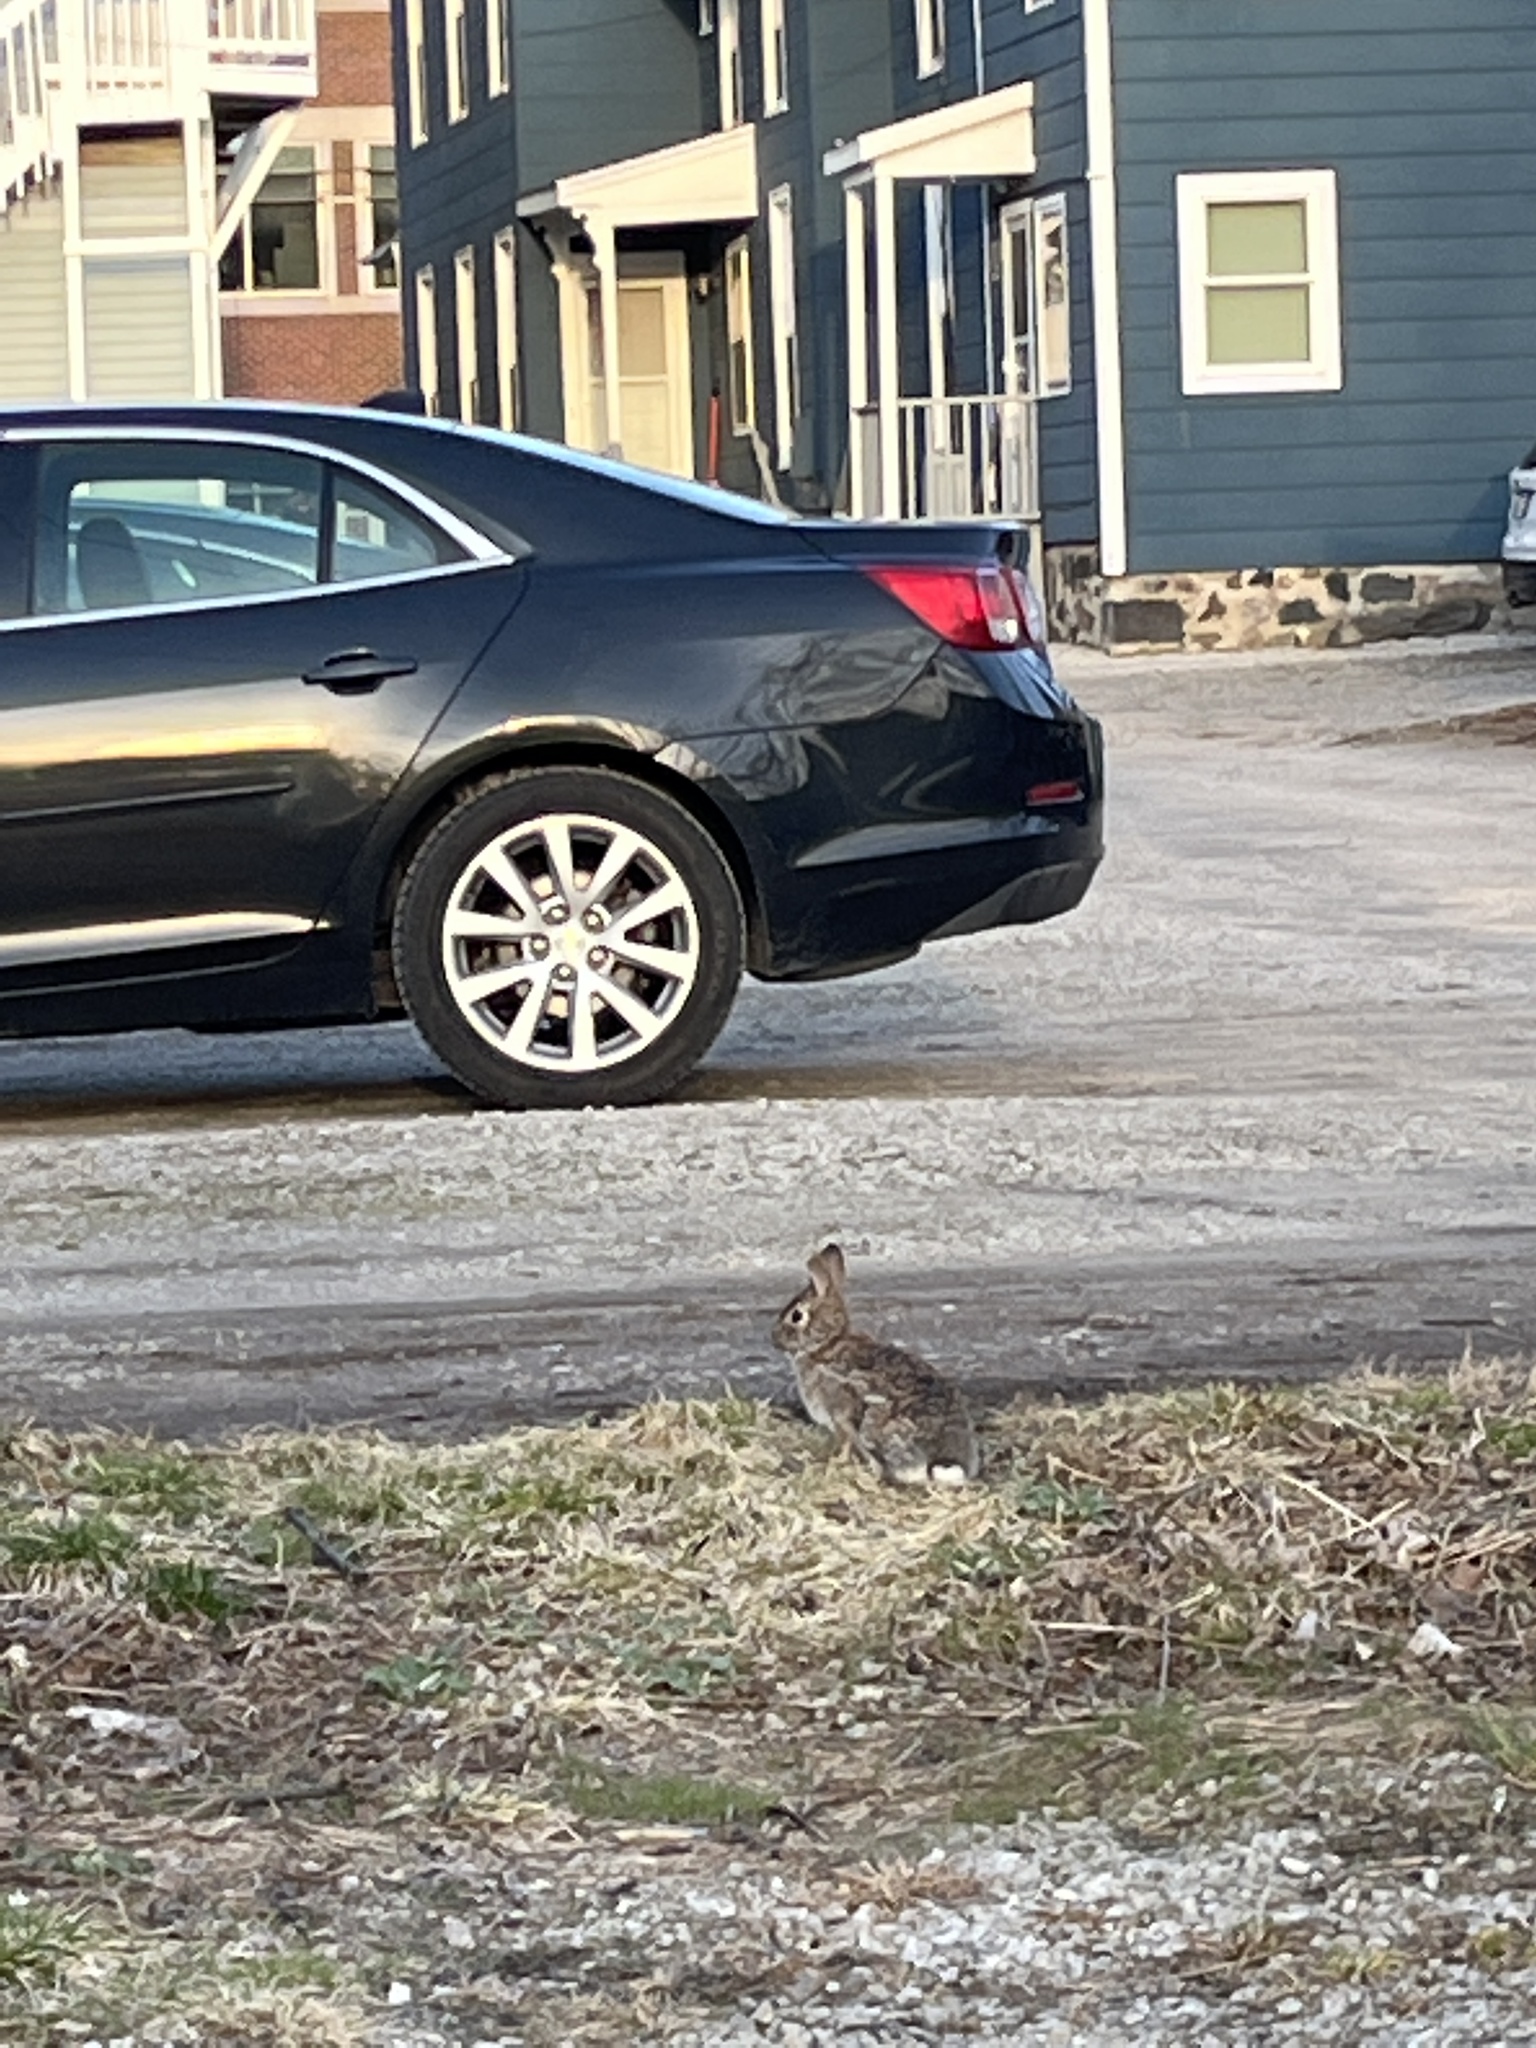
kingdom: Animalia
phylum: Chordata
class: Mammalia
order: Lagomorpha
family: Leporidae
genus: Sylvilagus
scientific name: Sylvilagus floridanus
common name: Eastern cottontail
